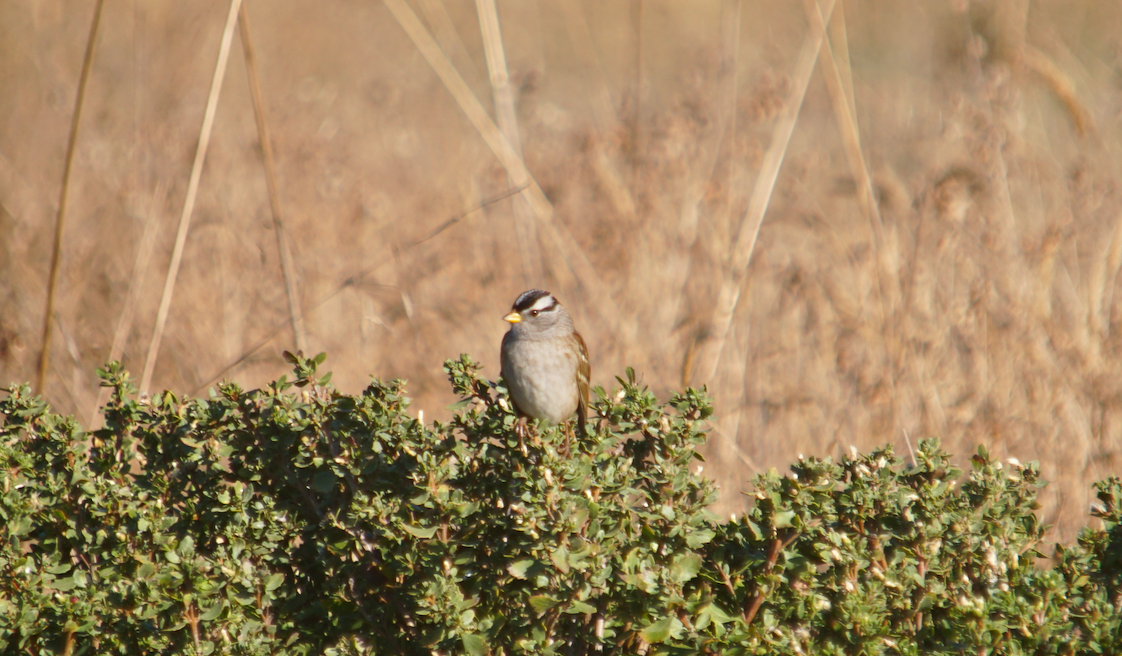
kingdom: Animalia
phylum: Chordata
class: Aves
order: Passeriformes
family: Passerellidae
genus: Zonotrichia
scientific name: Zonotrichia leucophrys
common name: White-crowned sparrow
